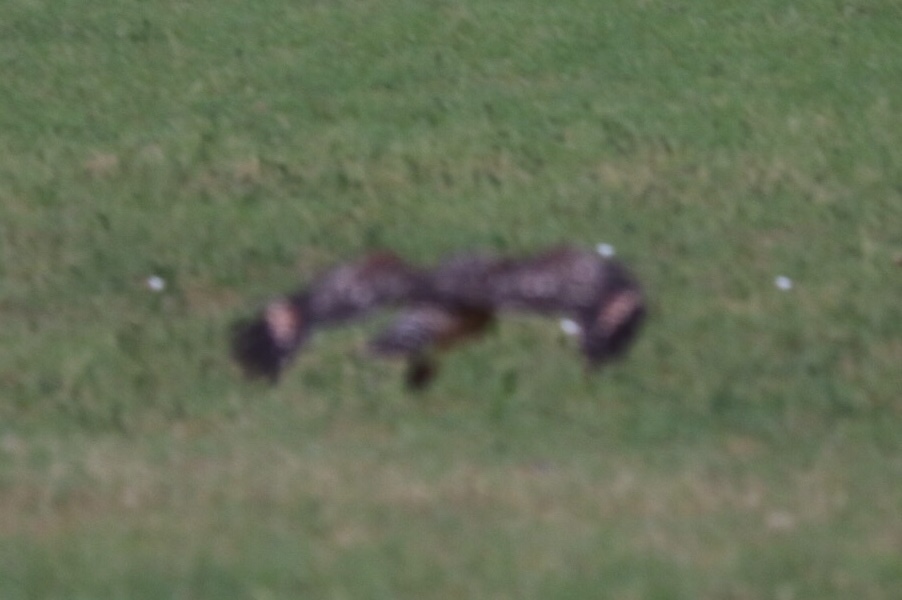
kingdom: Animalia
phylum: Chordata
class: Aves
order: Accipitriformes
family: Accipitridae
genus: Buteo
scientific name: Buteo lineatus
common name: Red-shouldered hawk
